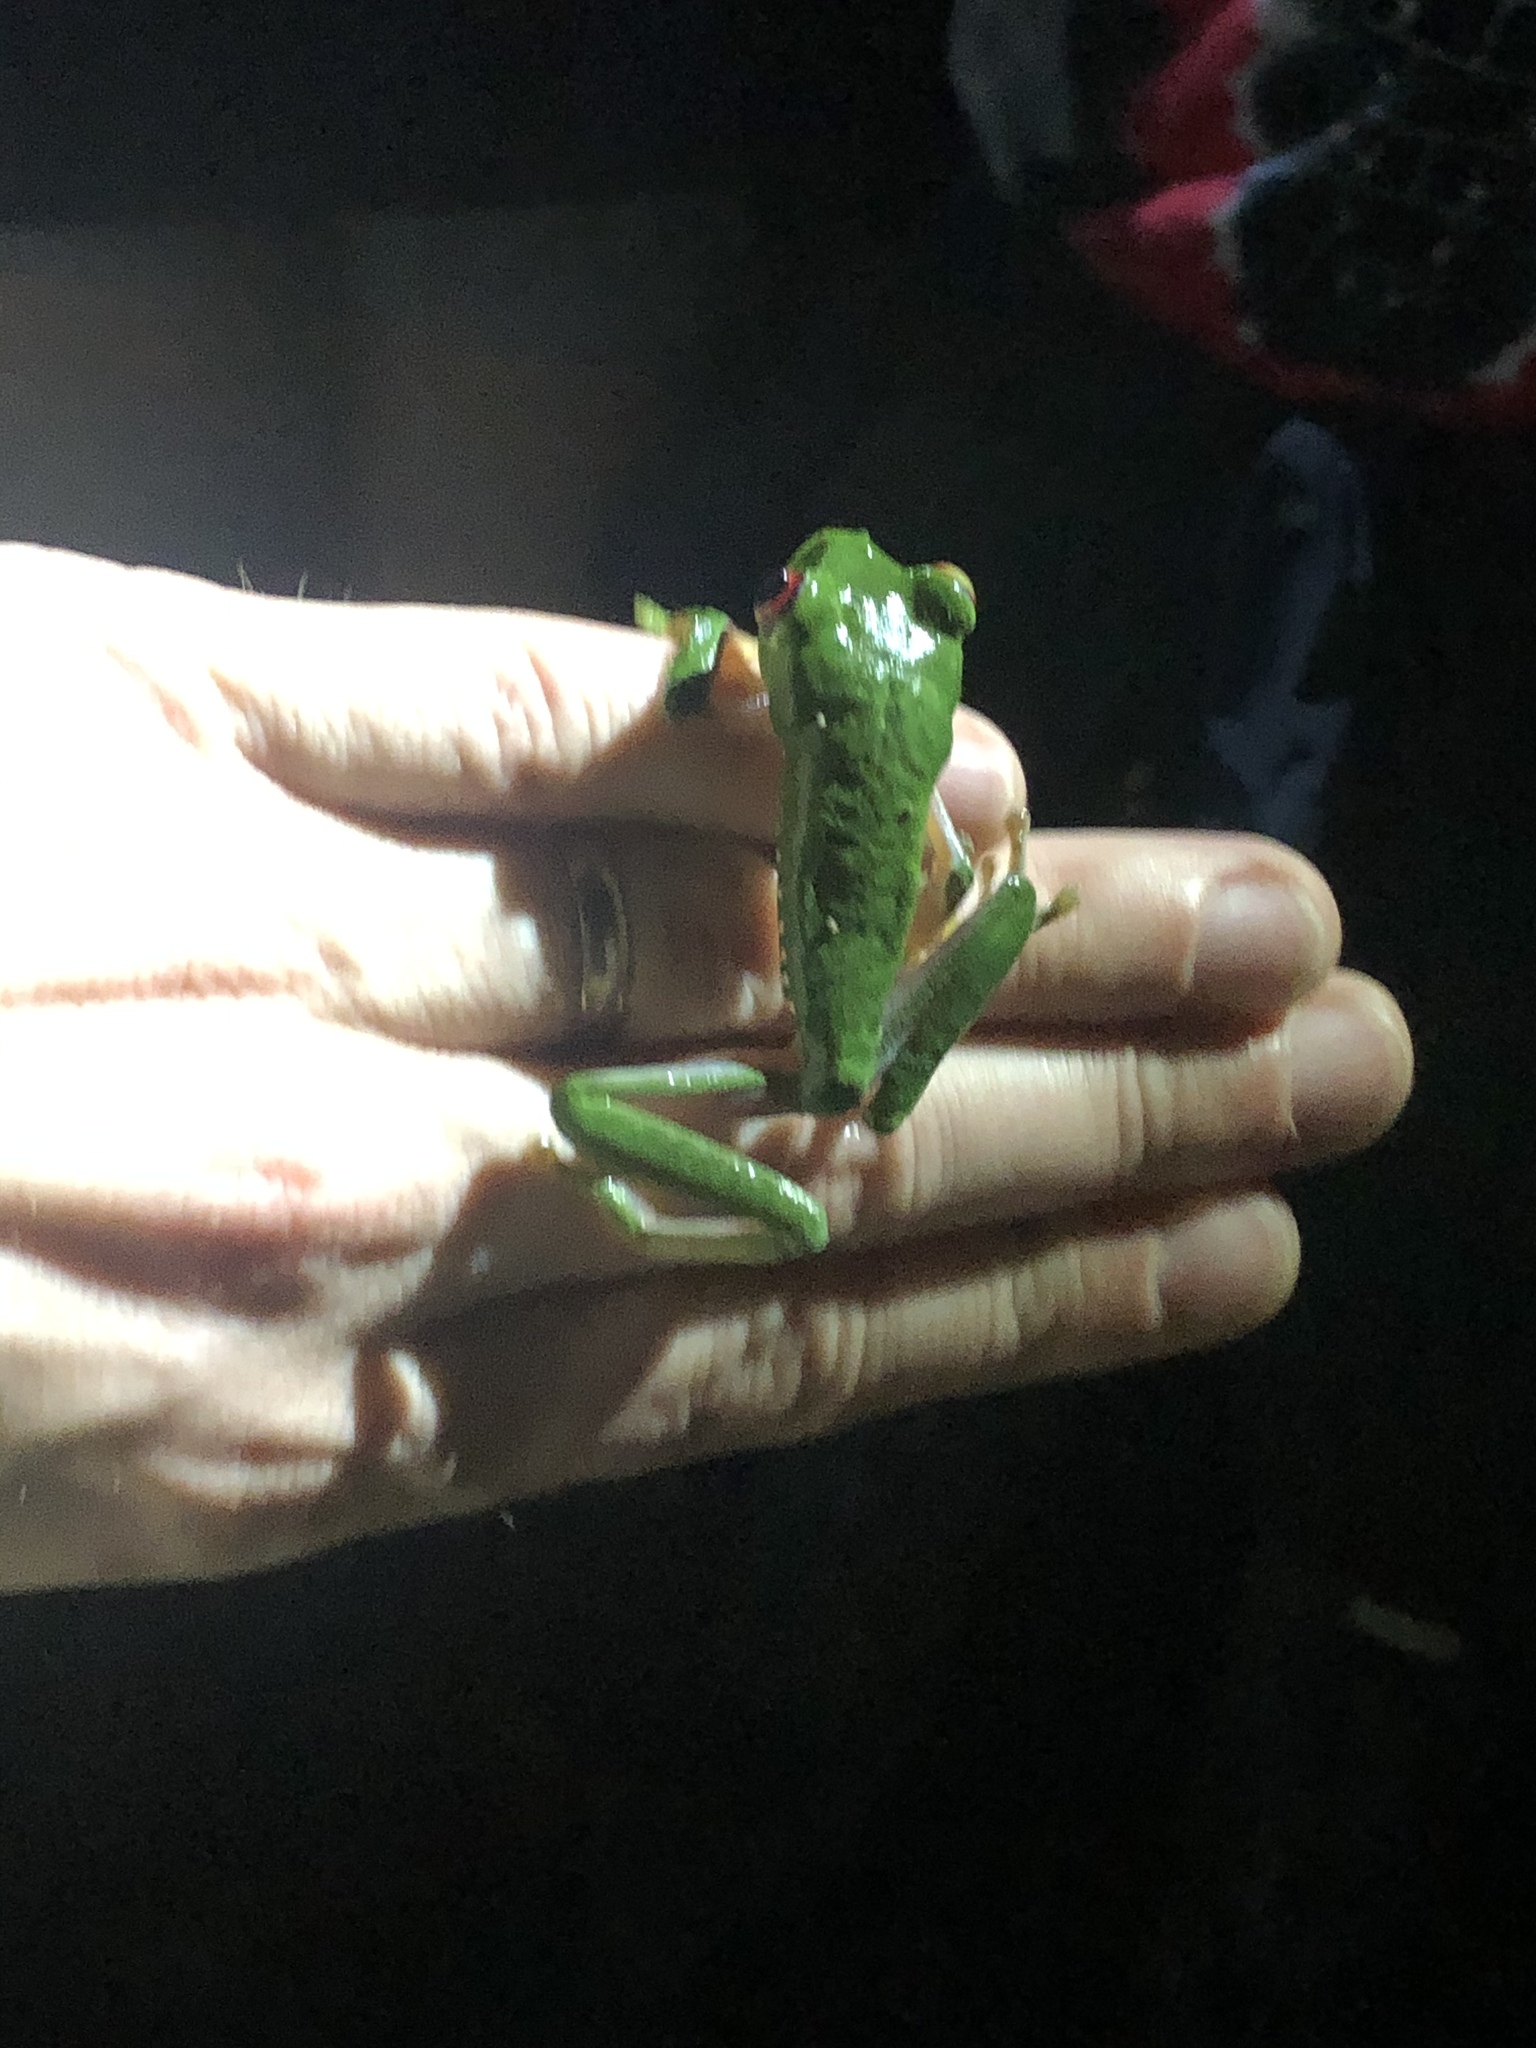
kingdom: Animalia
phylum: Chordata
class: Amphibia
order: Anura
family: Phyllomedusidae
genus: Agalychnis
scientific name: Agalychnis callidryas
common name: Red-eyed treefrog
